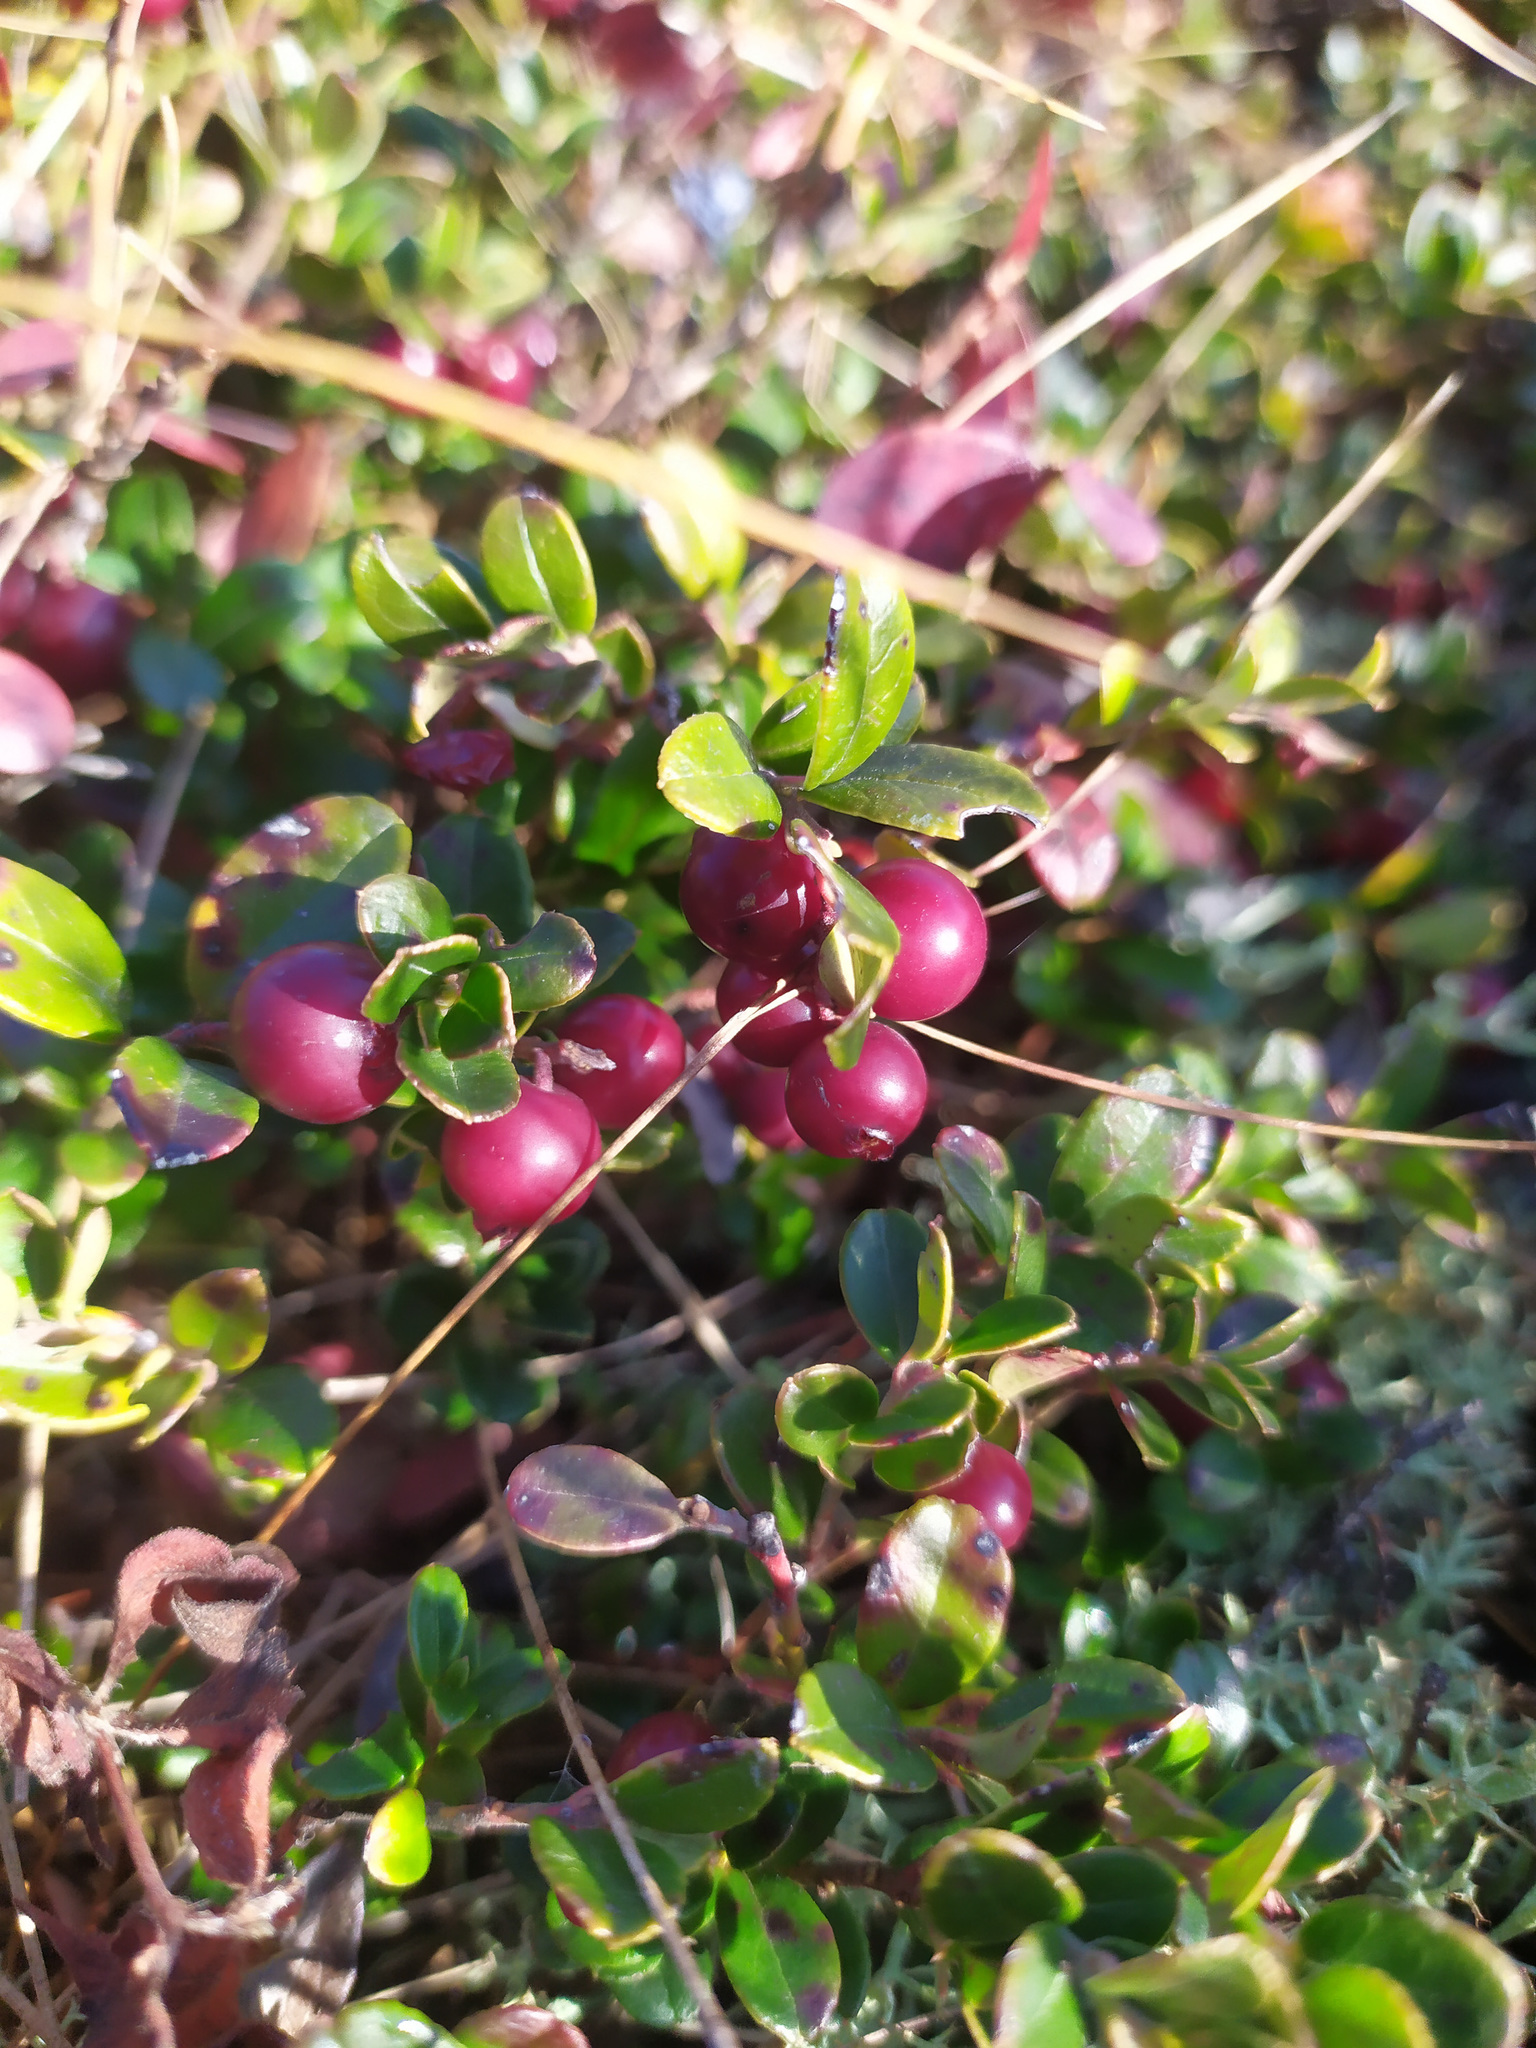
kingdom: Plantae
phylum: Tracheophyta
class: Magnoliopsida
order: Ericales
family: Ericaceae
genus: Vaccinium
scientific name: Vaccinium vitis-idaea
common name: Cowberry
